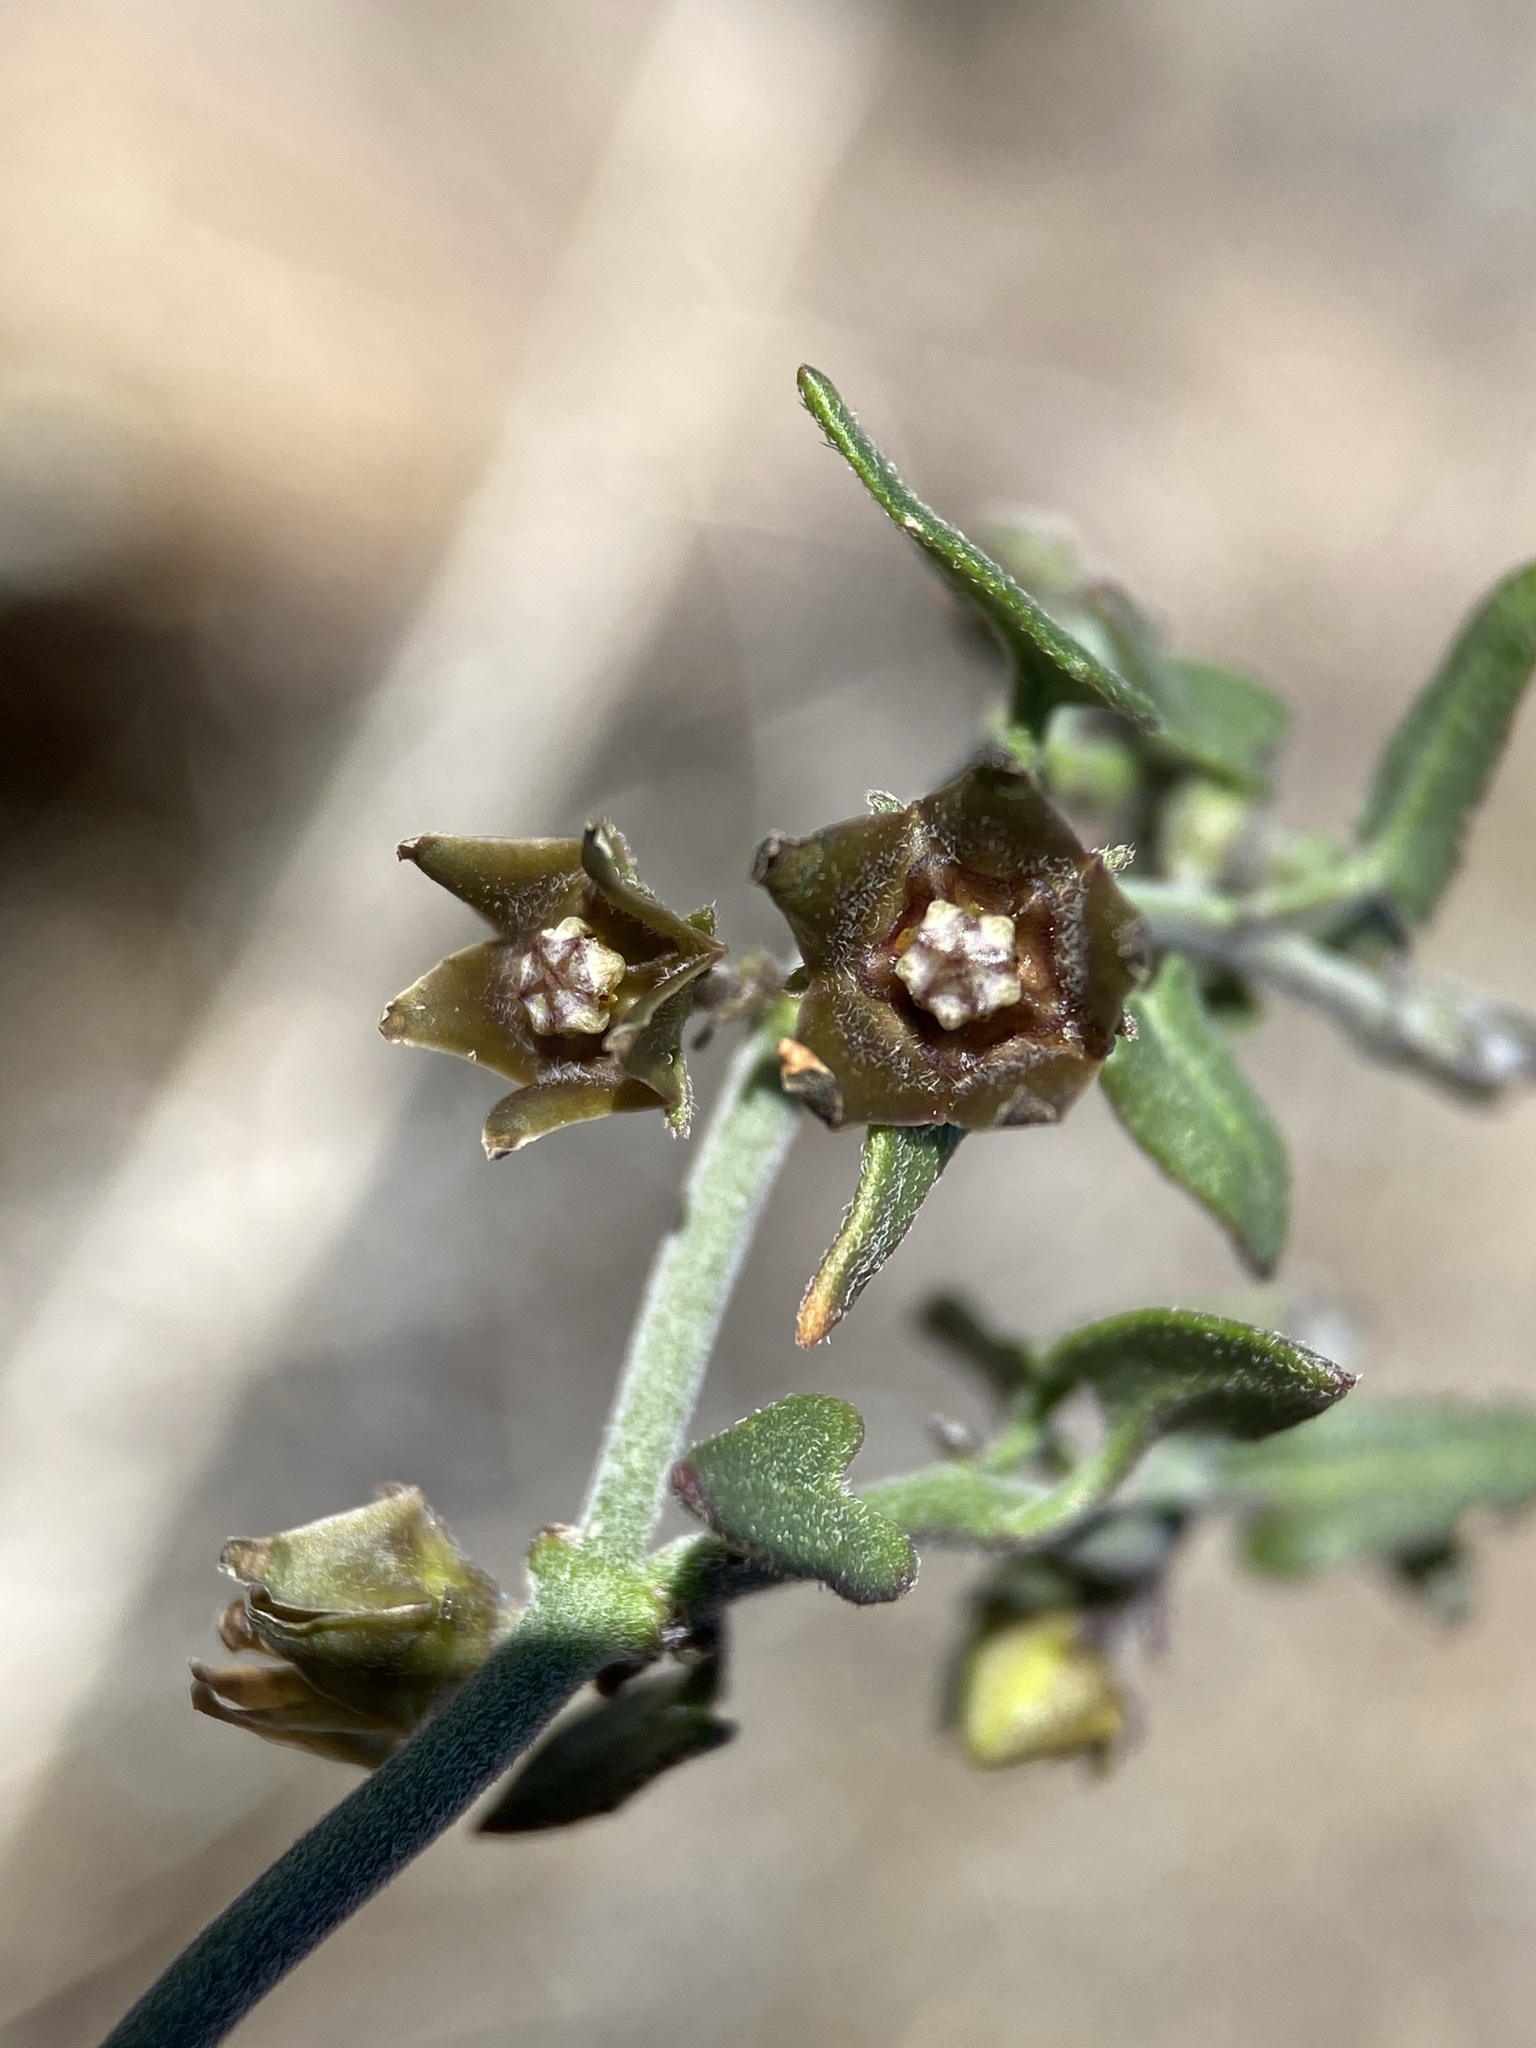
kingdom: Plantae
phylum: Tracheophyta
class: Magnoliopsida
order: Gentianales
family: Apocynaceae
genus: Matelea
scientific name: Matelea parvifolia
